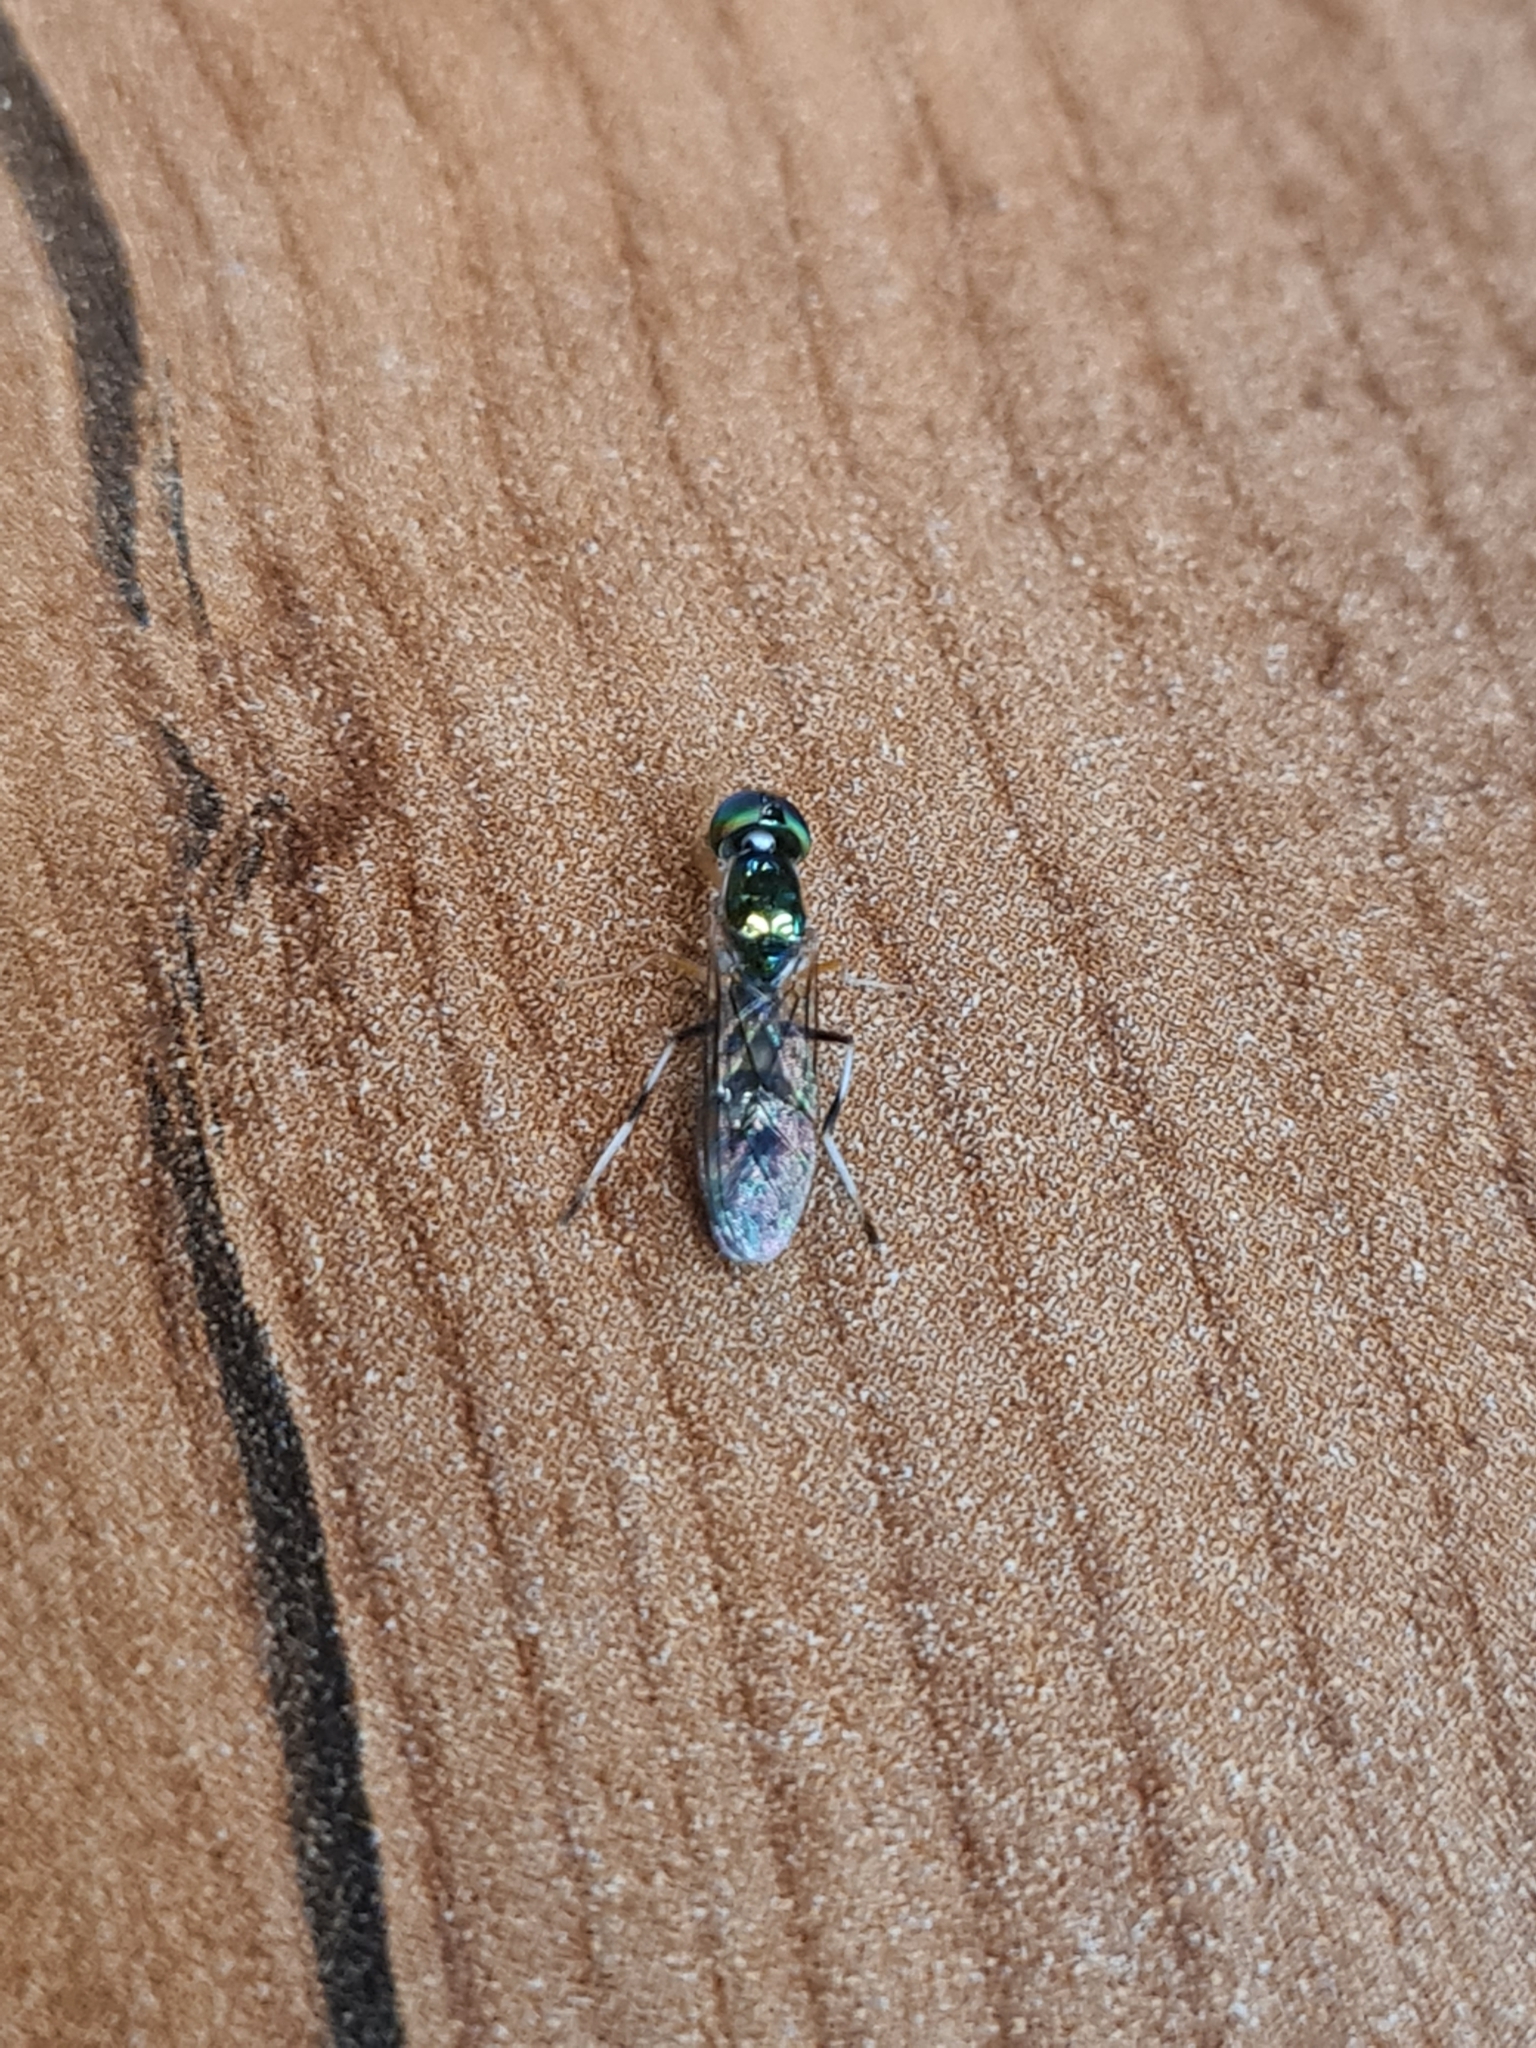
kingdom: Animalia
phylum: Arthropoda
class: Insecta
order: Diptera
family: Stratiomyidae
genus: Sargus
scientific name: Sargus fasciatus
